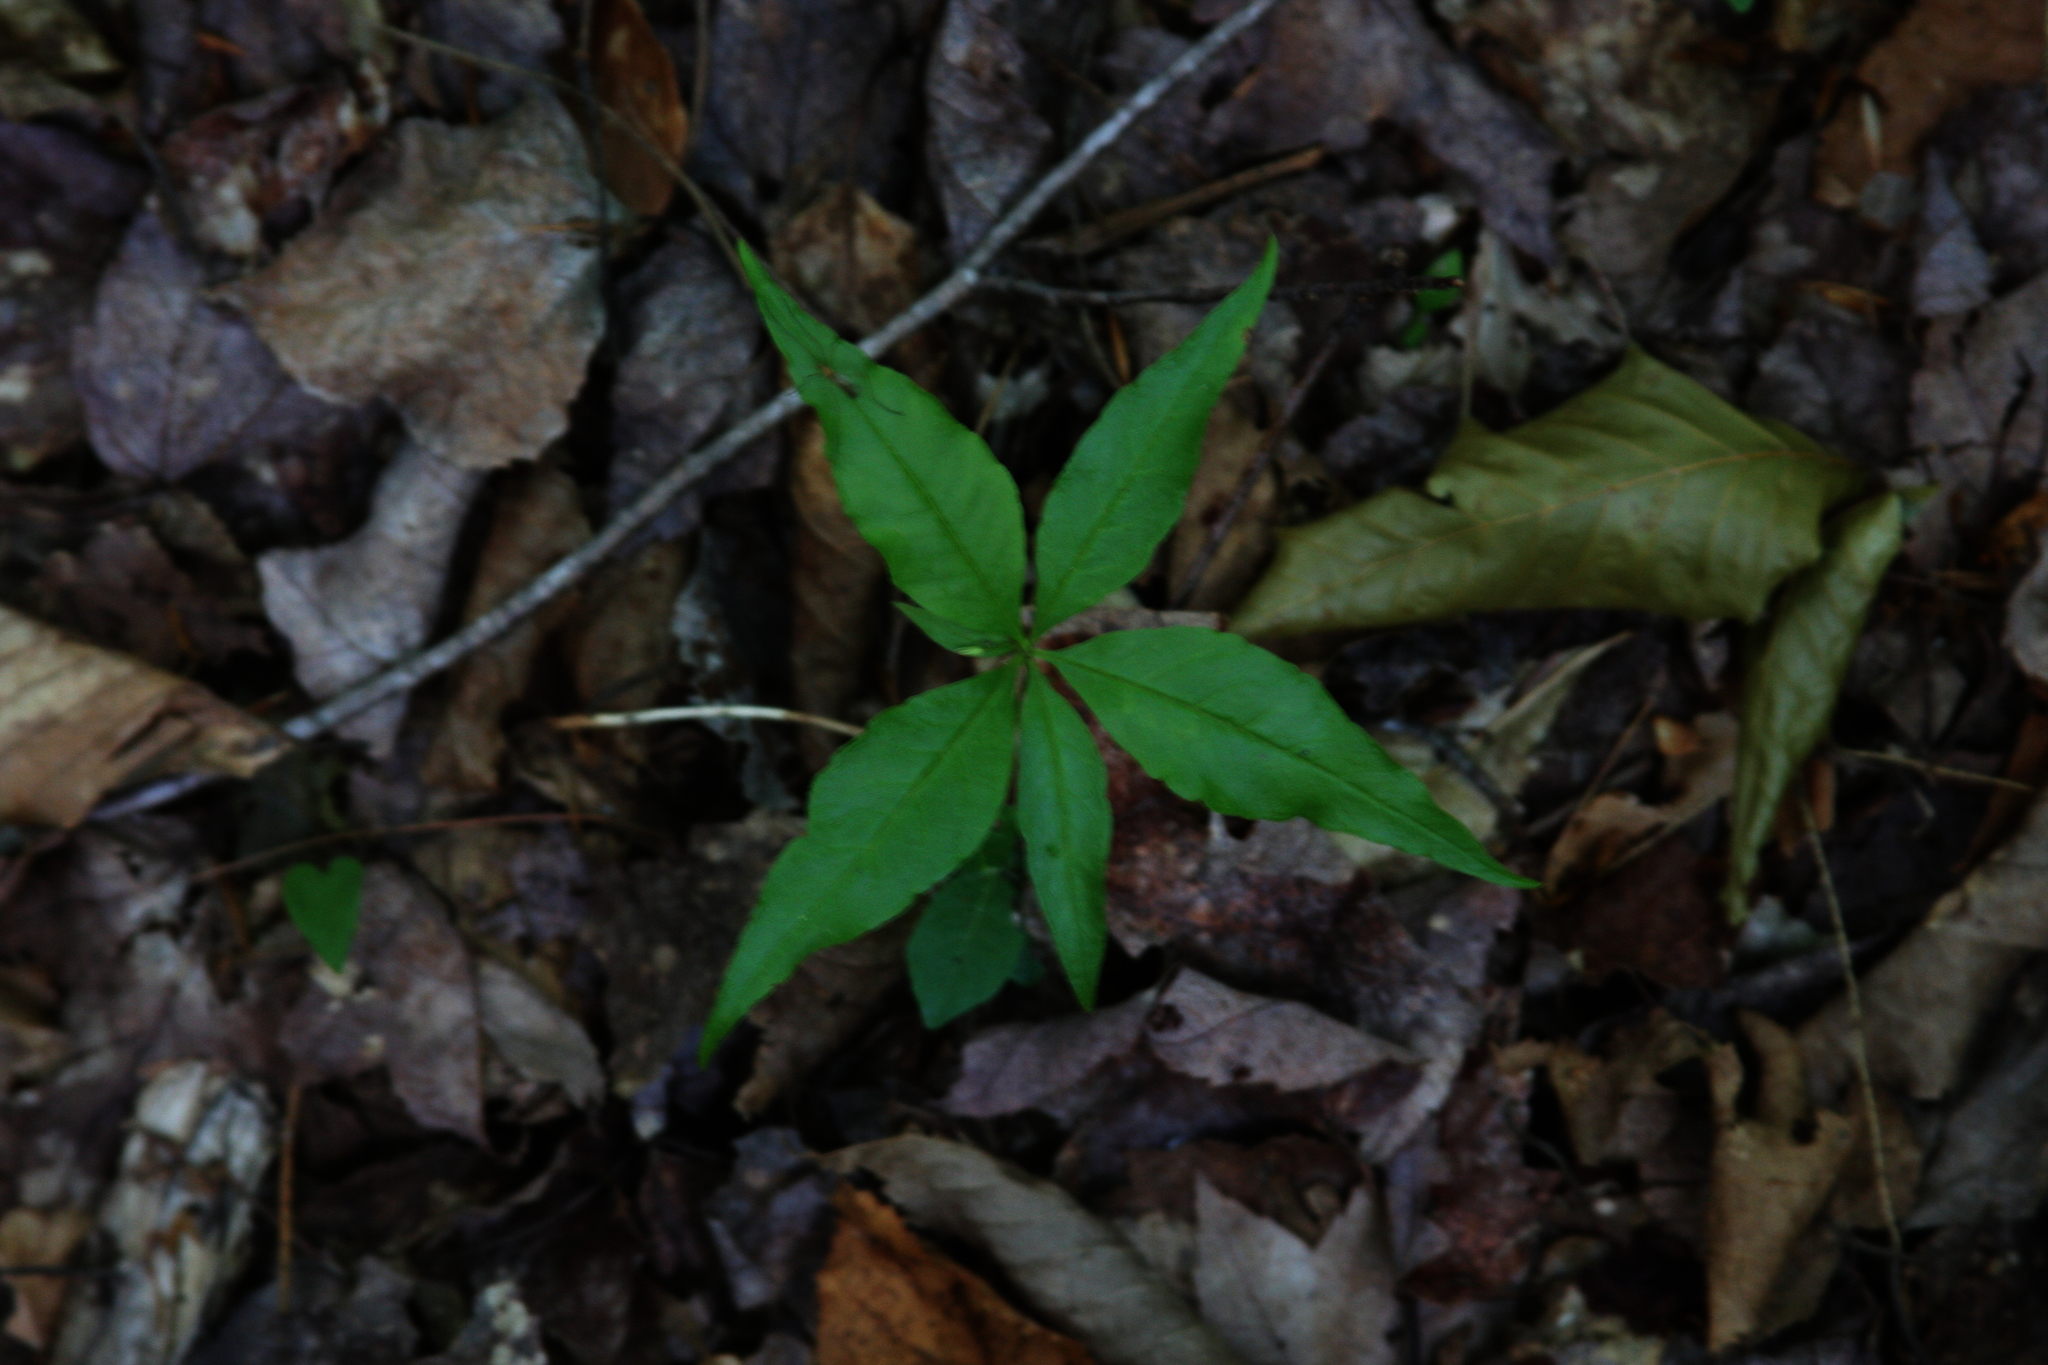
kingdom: Plantae
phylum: Tracheophyta
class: Magnoliopsida
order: Ericales
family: Primulaceae
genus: Lysimachia
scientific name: Lysimachia borealis
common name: American starflower
